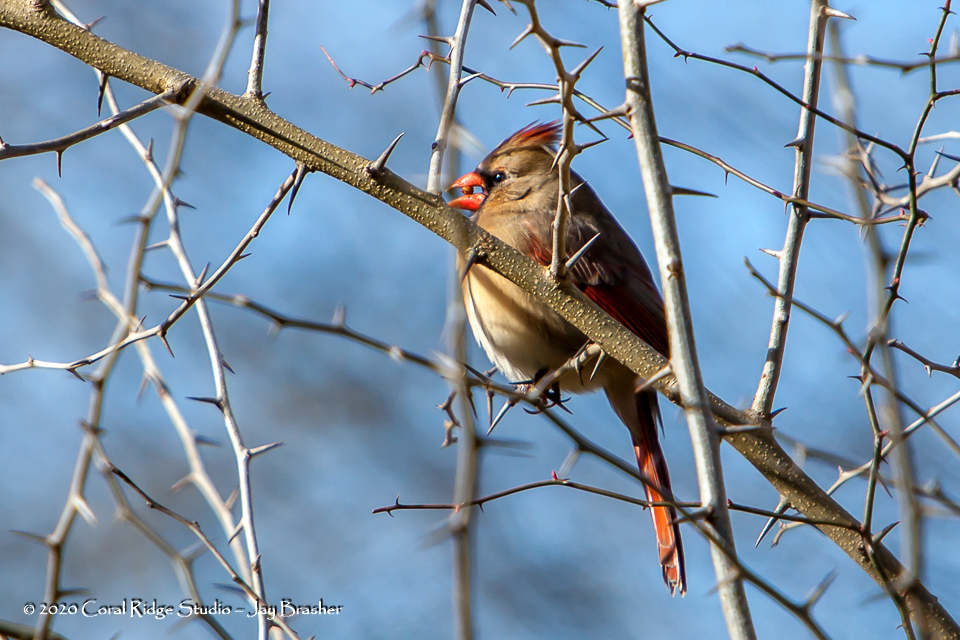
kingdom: Animalia
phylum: Chordata
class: Aves
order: Passeriformes
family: Cardinalidae
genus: Cardinalis
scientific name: Cardinalis cardinalis
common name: Northern cardinal
